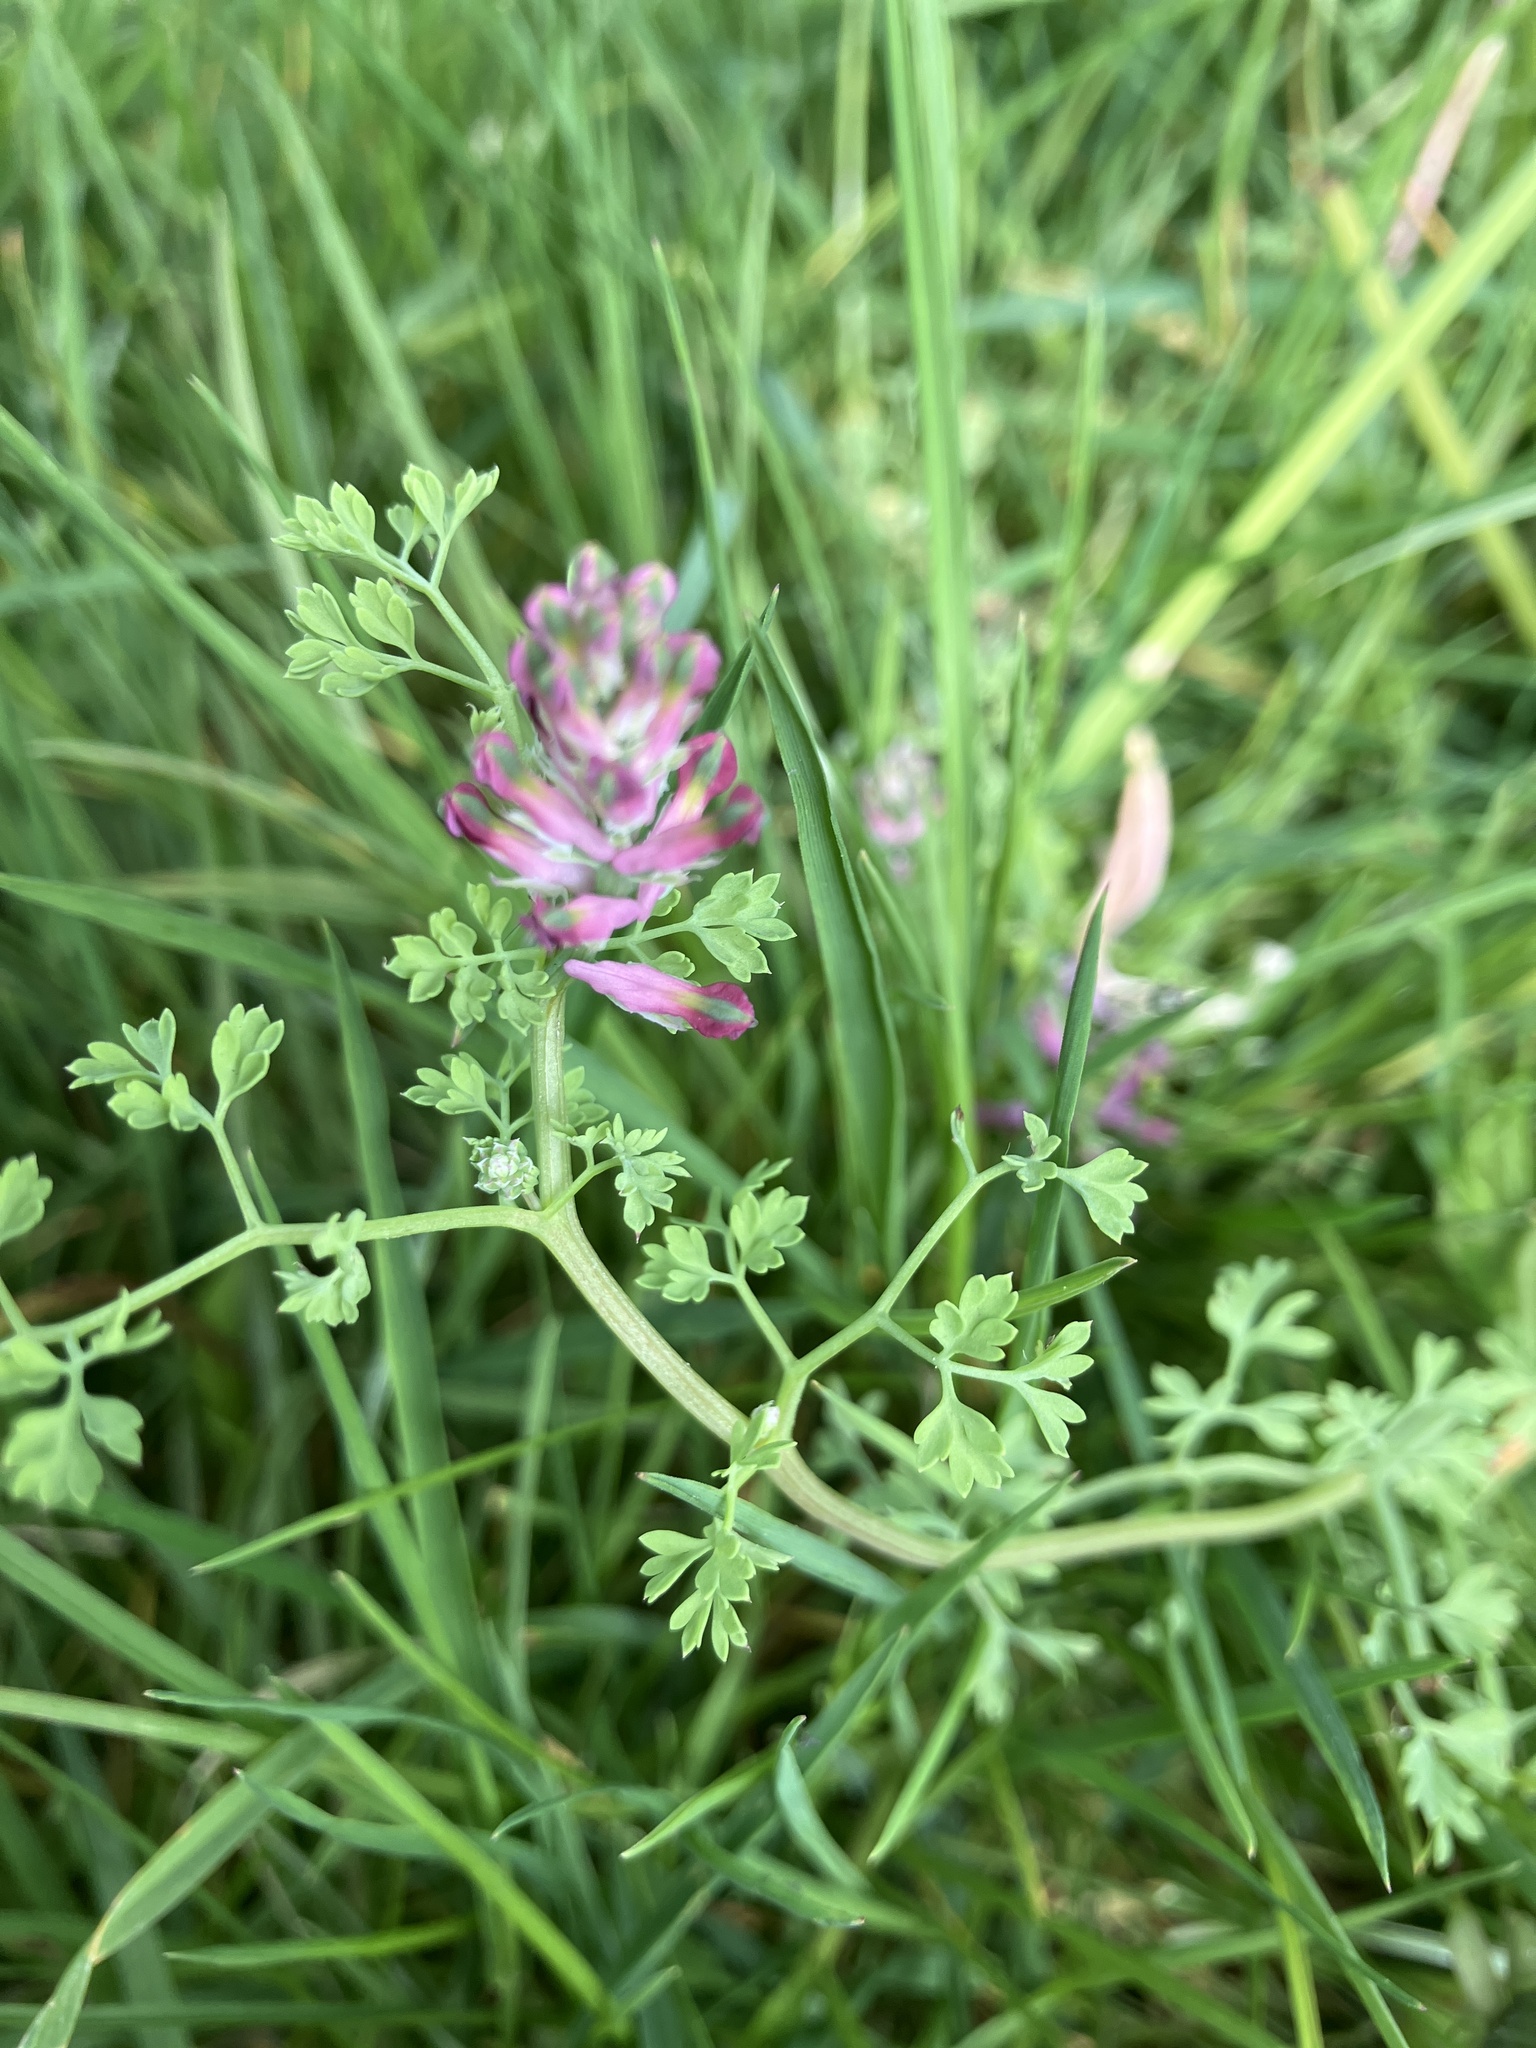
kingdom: Plantae
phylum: Tracheophyta
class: Magnoliopsida
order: Ranunculales
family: Papaveraceae
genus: Fumaria
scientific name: Fumaria officinalis
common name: Common fumitory
